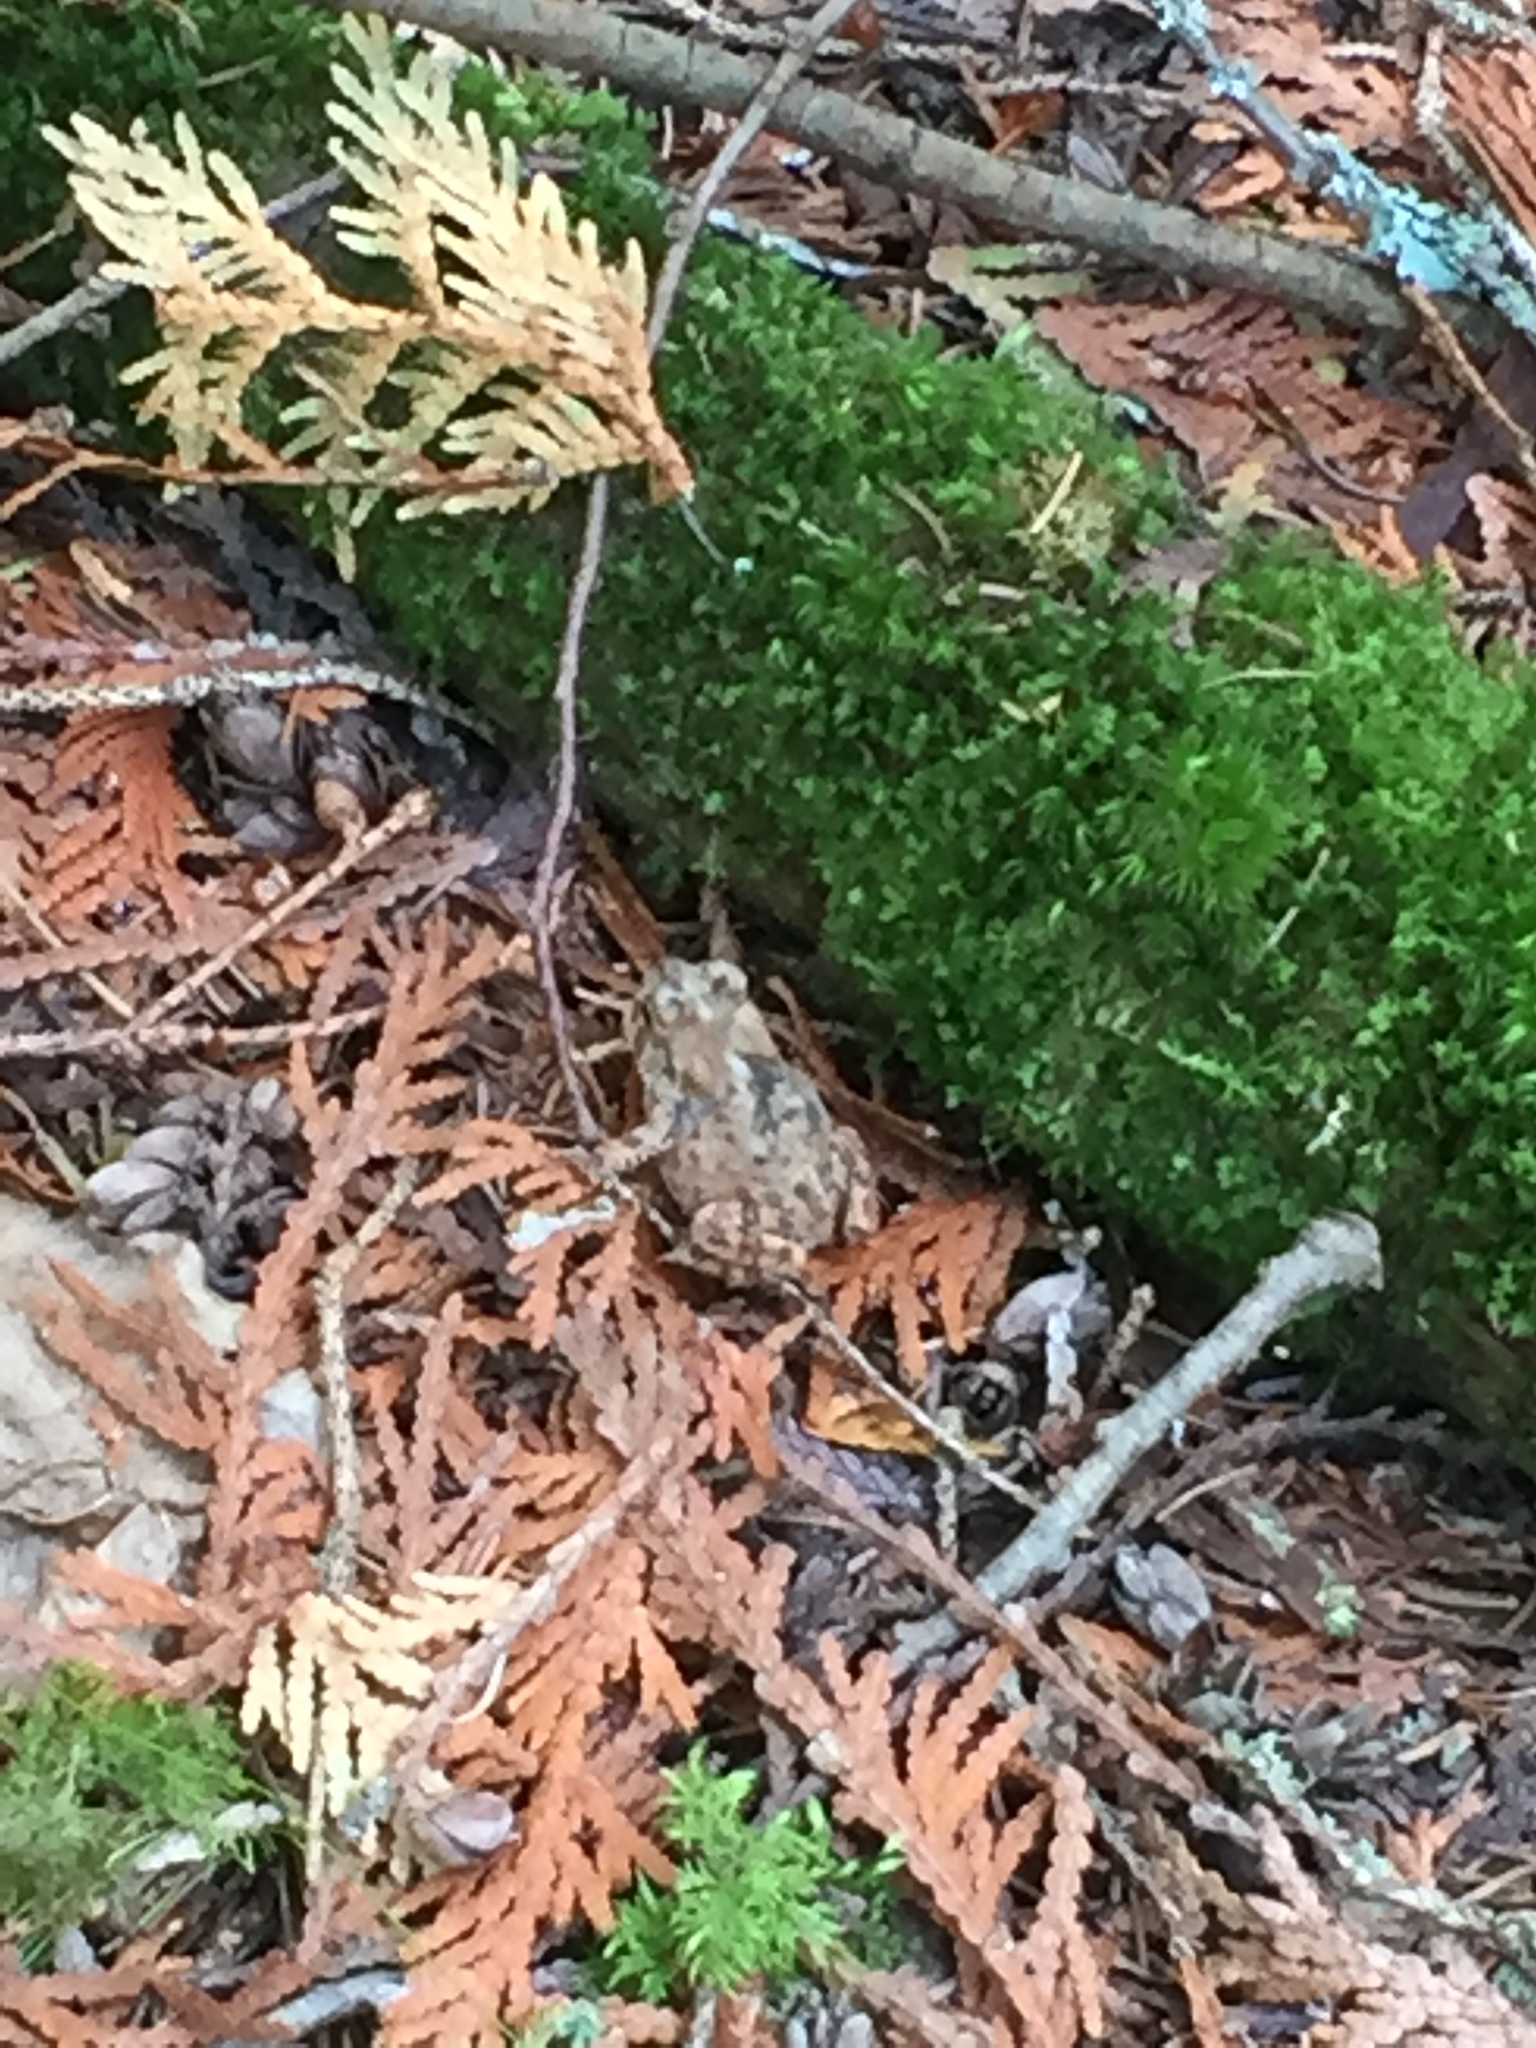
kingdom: Animalia
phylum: Chordata
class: Amphibia
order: Anura
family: Bufonidae
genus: Anaxyrus
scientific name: Anaxyrus americanus
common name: American toad
